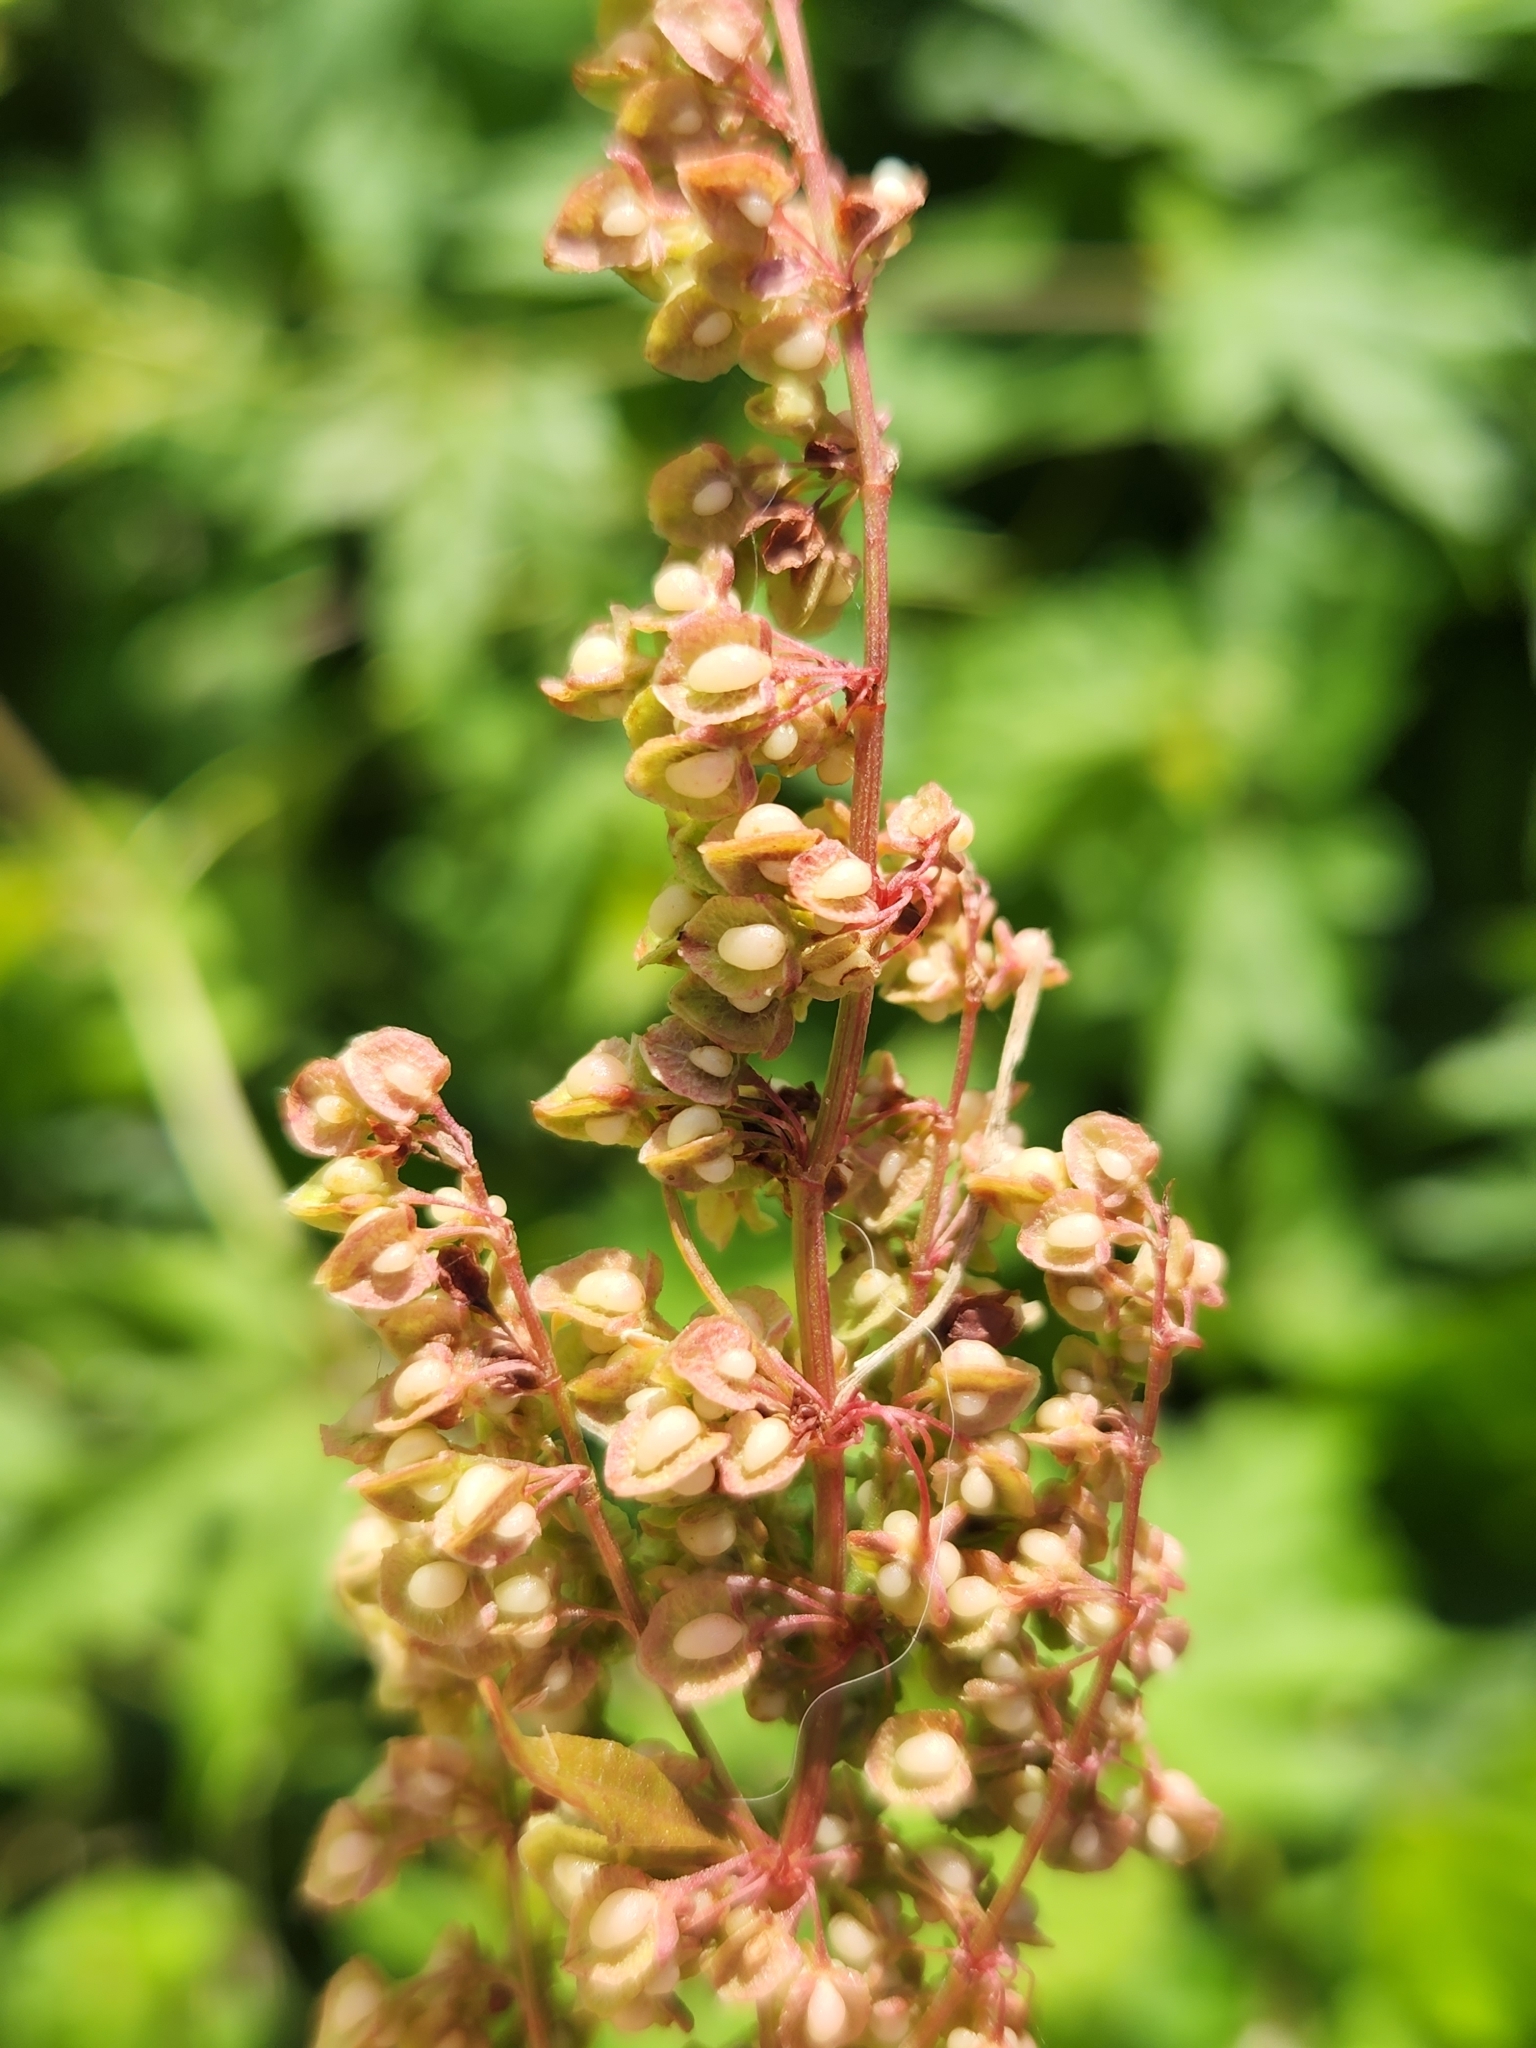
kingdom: Plantae
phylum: Tracheophyta
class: Magnoliopsida
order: Caryophyllales
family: Polygonaceae
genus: Rumex
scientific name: Rumex crispus
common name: Curled dock
